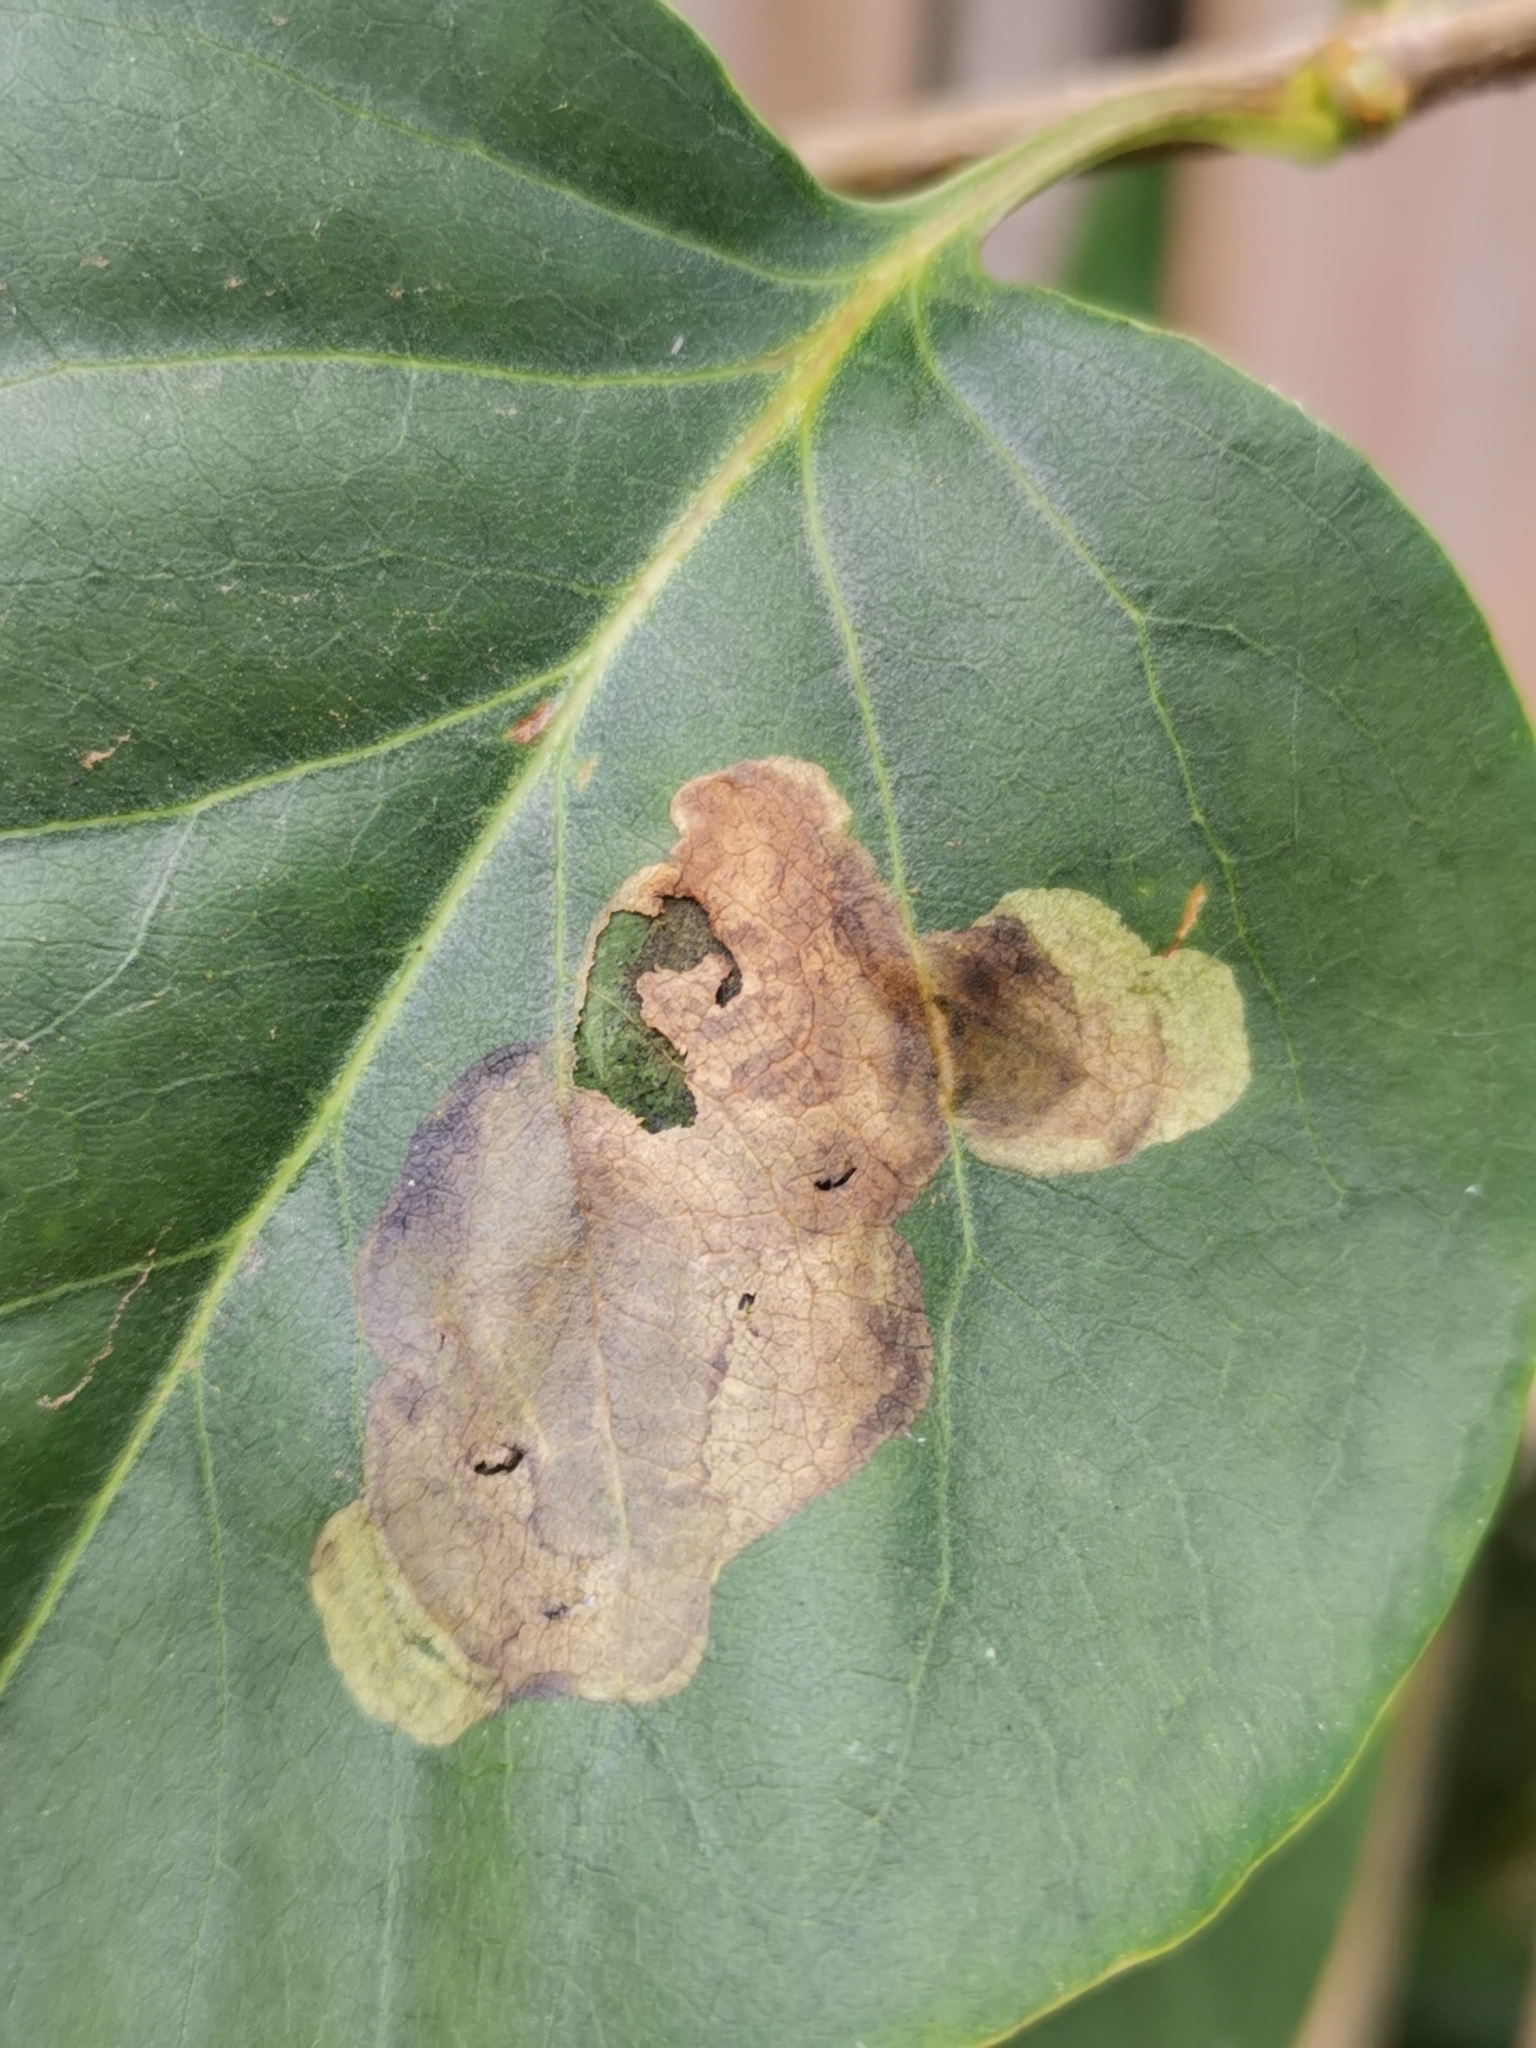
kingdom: Animalia
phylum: Arthropoda
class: Insecta
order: Lepidoptera
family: Gracillariidae
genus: Gracillaria
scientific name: Gracillaria syringella
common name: Common slender
